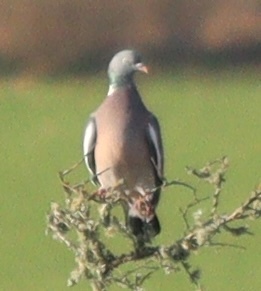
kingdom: Animalia
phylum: Chordata
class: Aves
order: Columbiformes
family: Columbidae
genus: Columba
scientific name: Columba palumbus
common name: Common wood pigeon
